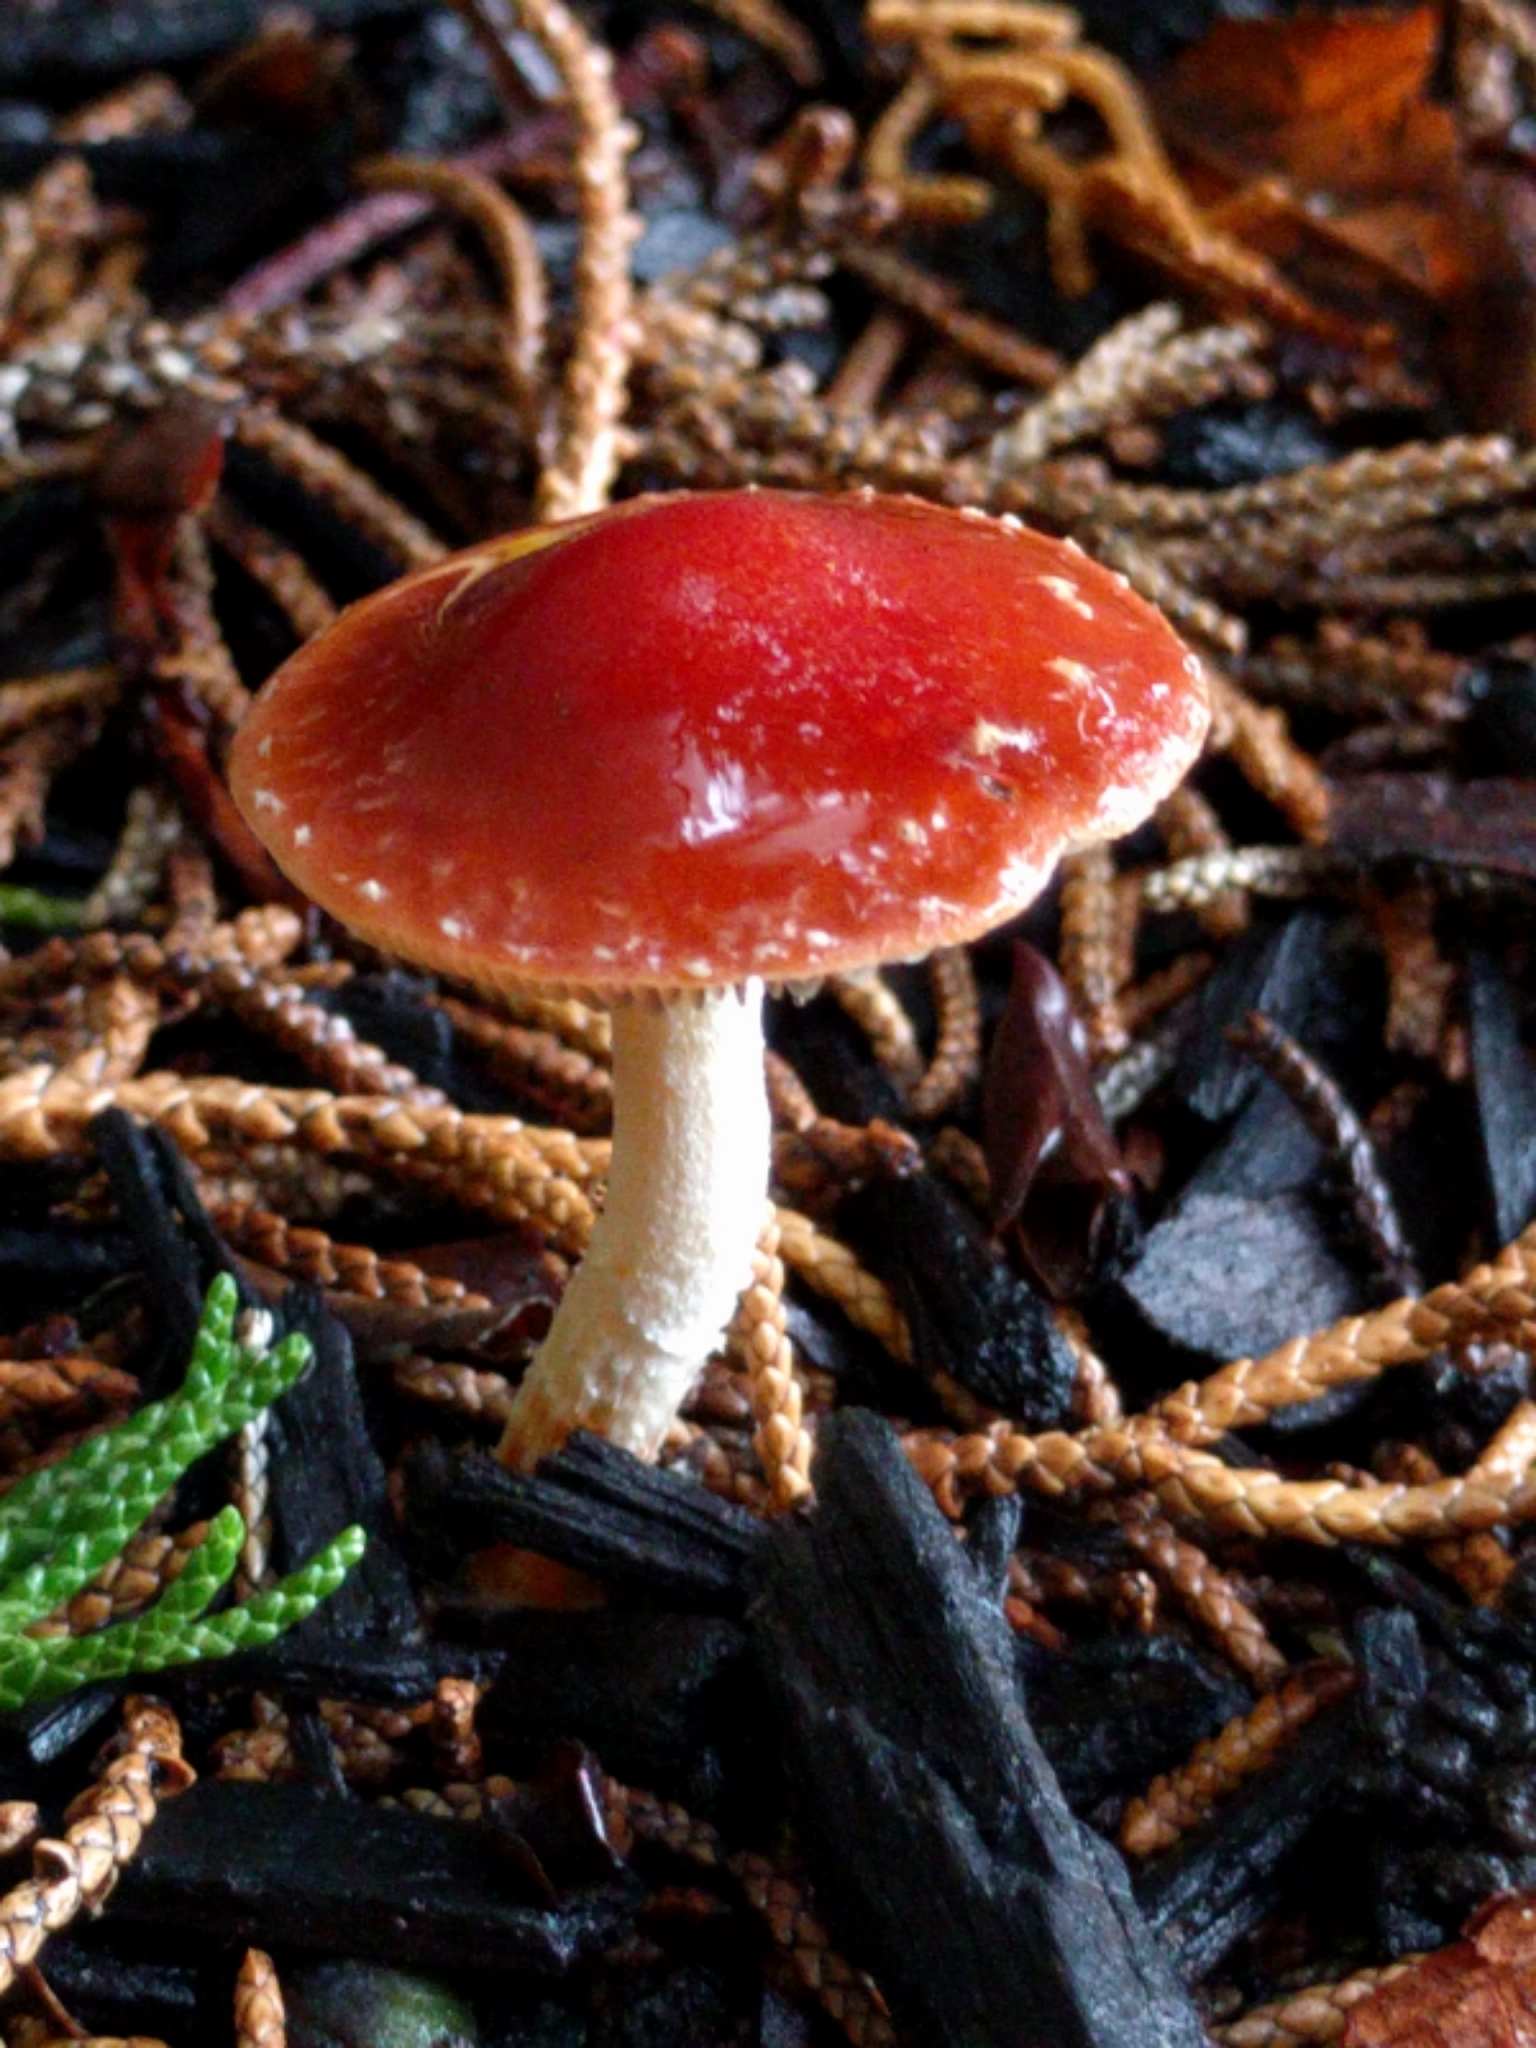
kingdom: Fungi
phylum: Basidiomycota
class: Agaricomycetes
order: Agaricales
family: Strophariaceae
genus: Leratiomyces
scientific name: Leratiomyces ceres
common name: Redlead roundhead
